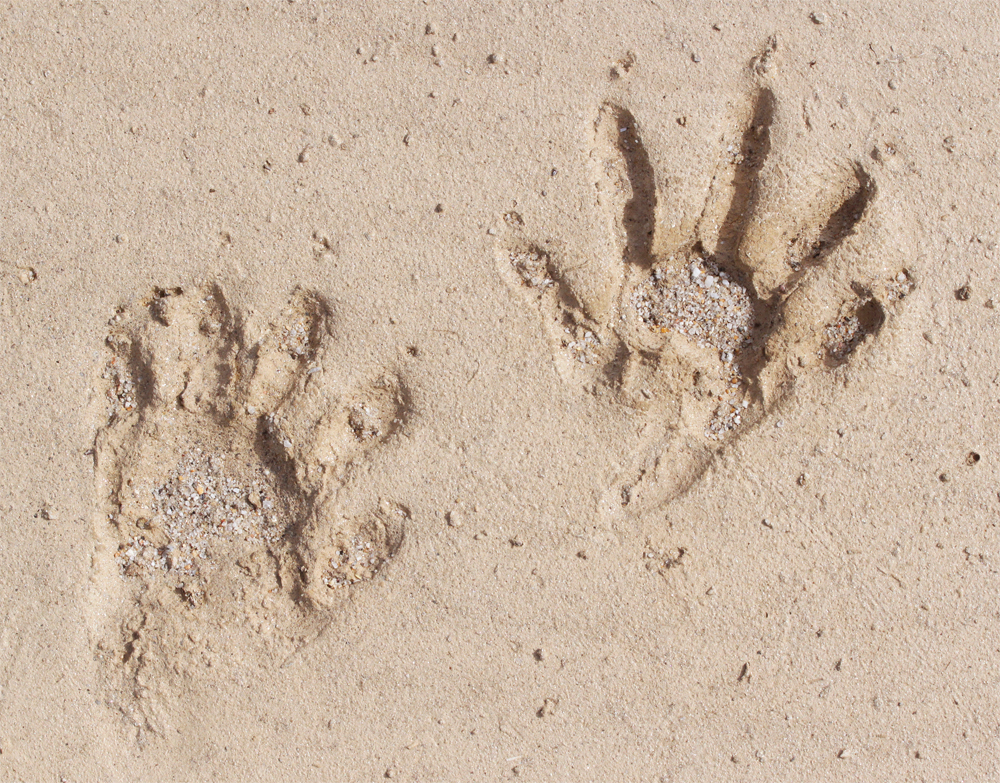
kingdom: Animalia
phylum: Chordata
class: Mammalia
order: Carnivora
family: Procyonidae
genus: Procyon
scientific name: Procyon lotor
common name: Raccoon
